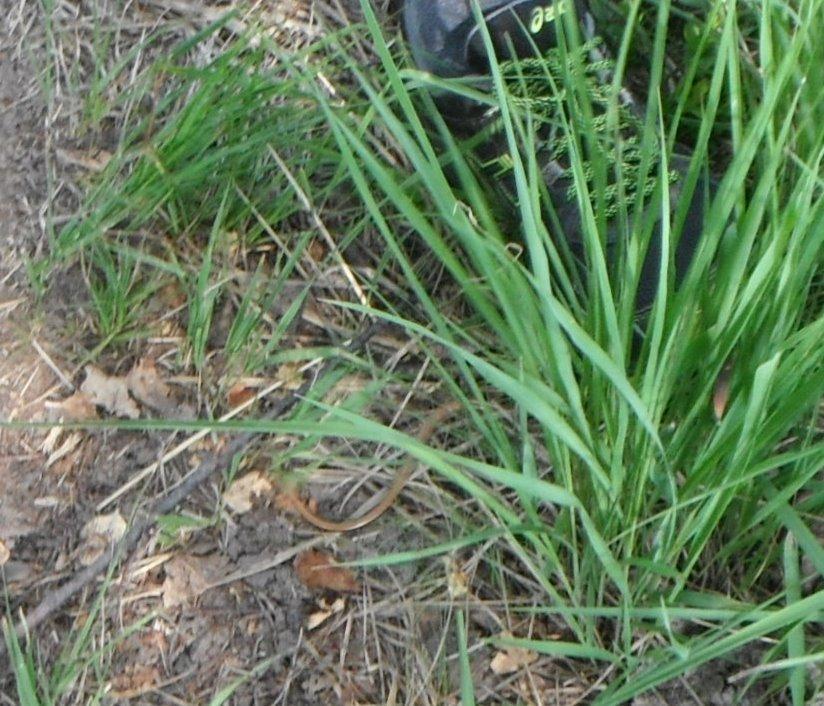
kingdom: Animalia
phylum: Chordata
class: Squamata
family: Anguidae
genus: Anguis
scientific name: Anguis fragilis
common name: Slow worm
